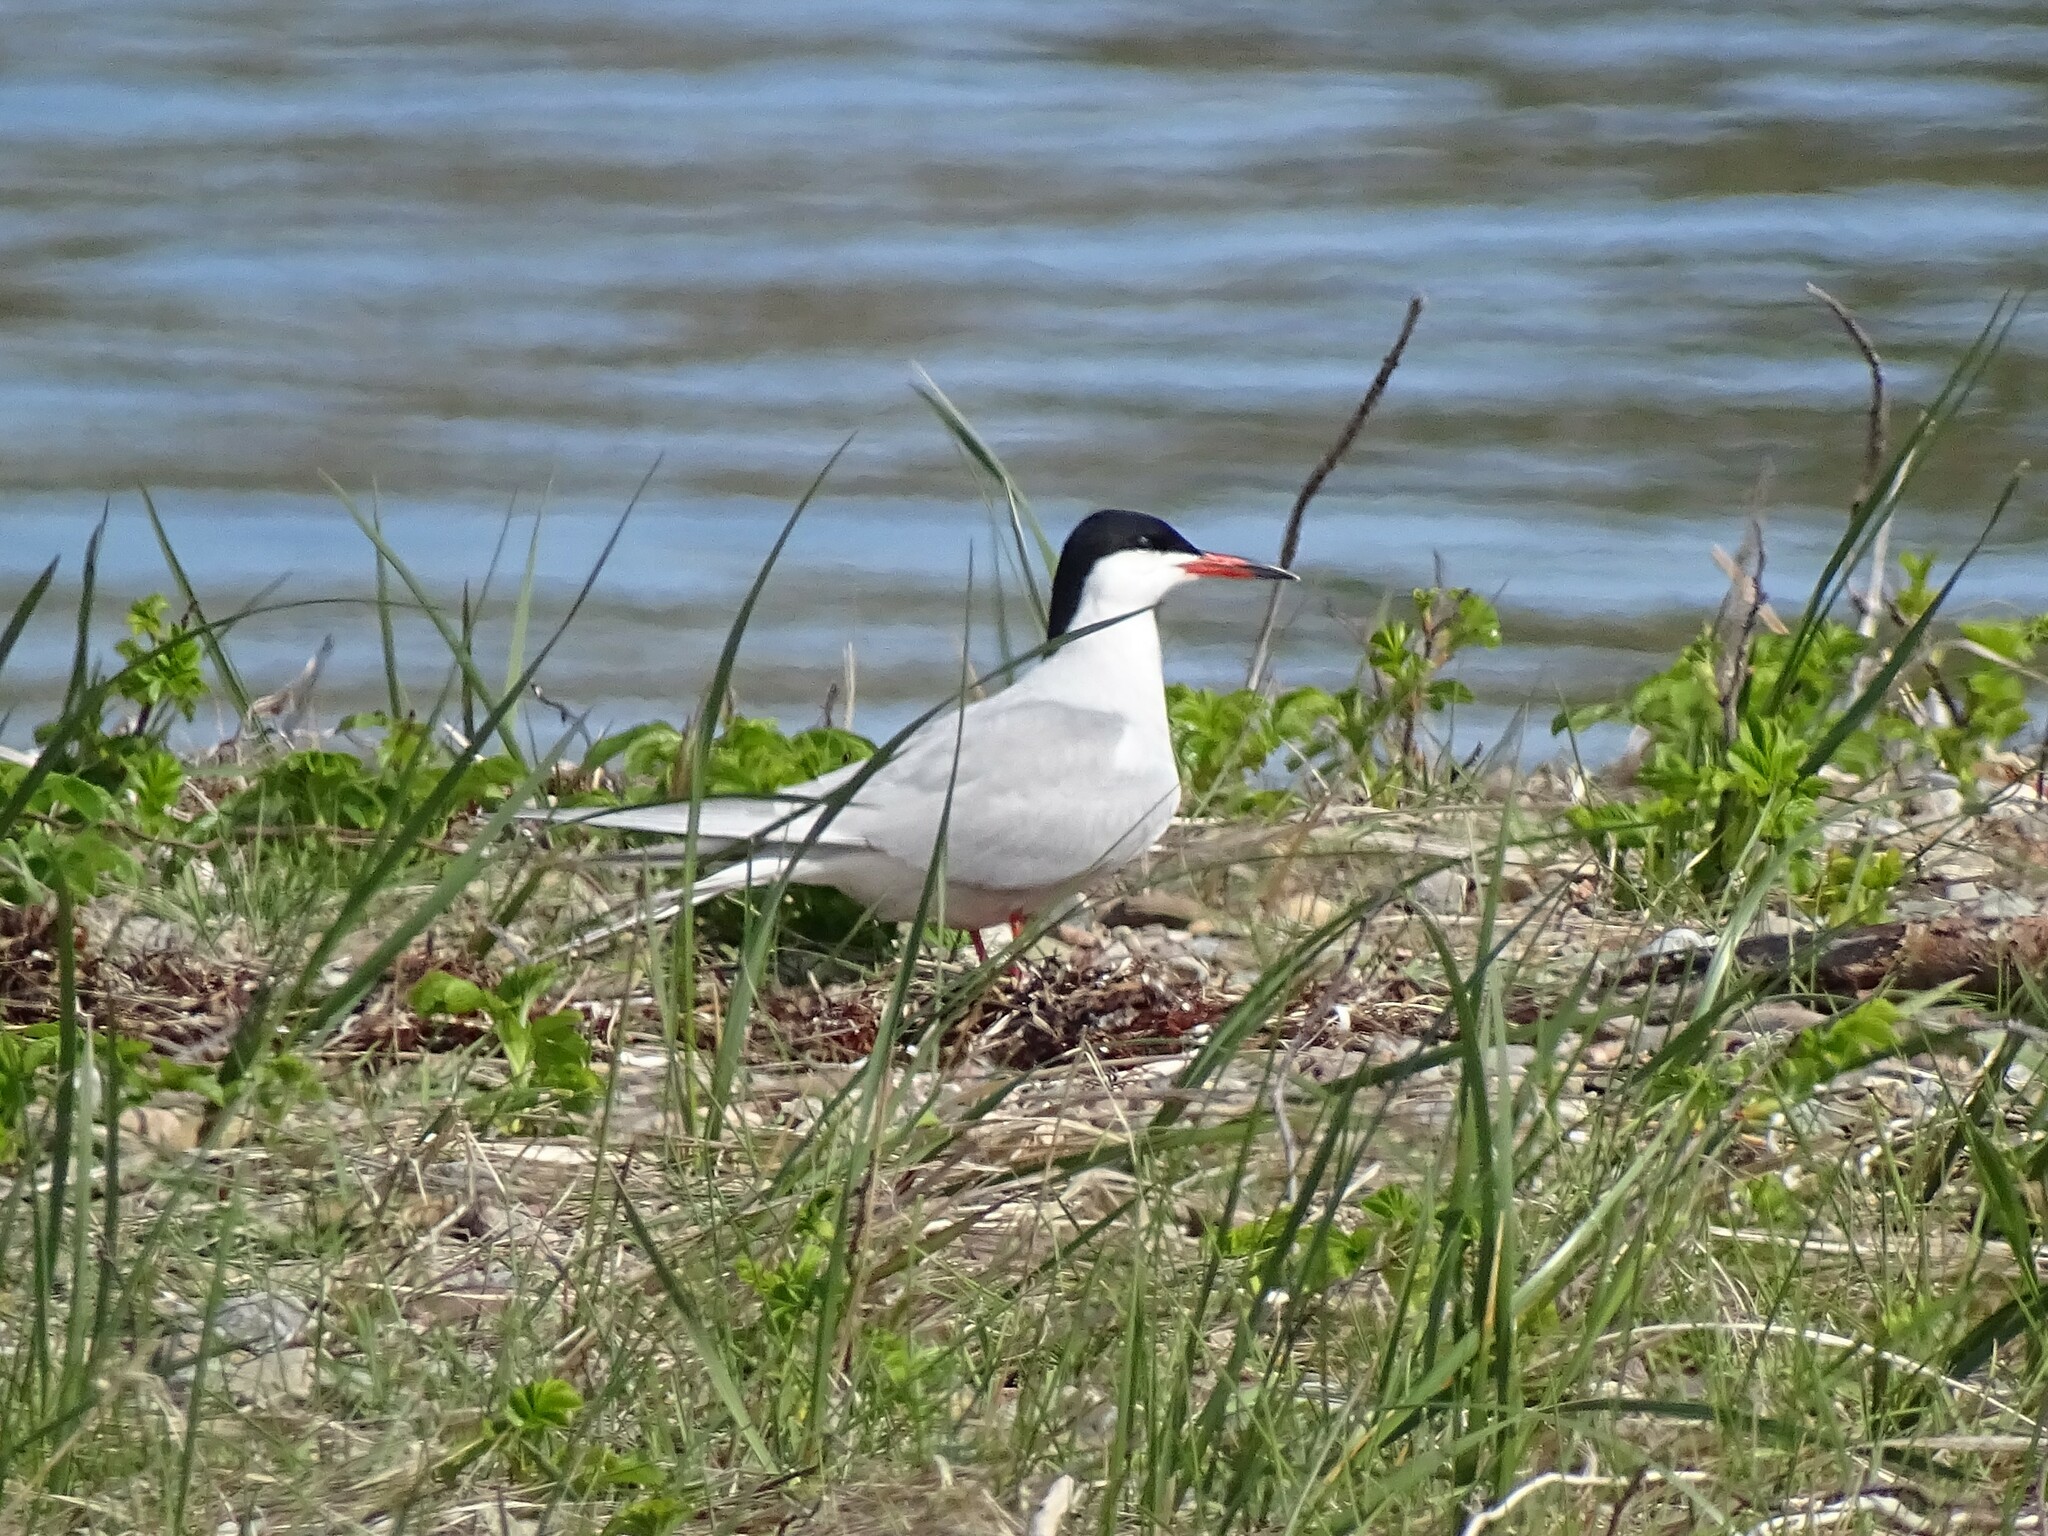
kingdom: Animalia
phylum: Chordata
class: Aves
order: Charadriiformes
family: Laridae
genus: Sterna
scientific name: Sterna hirundo
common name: Common tern
